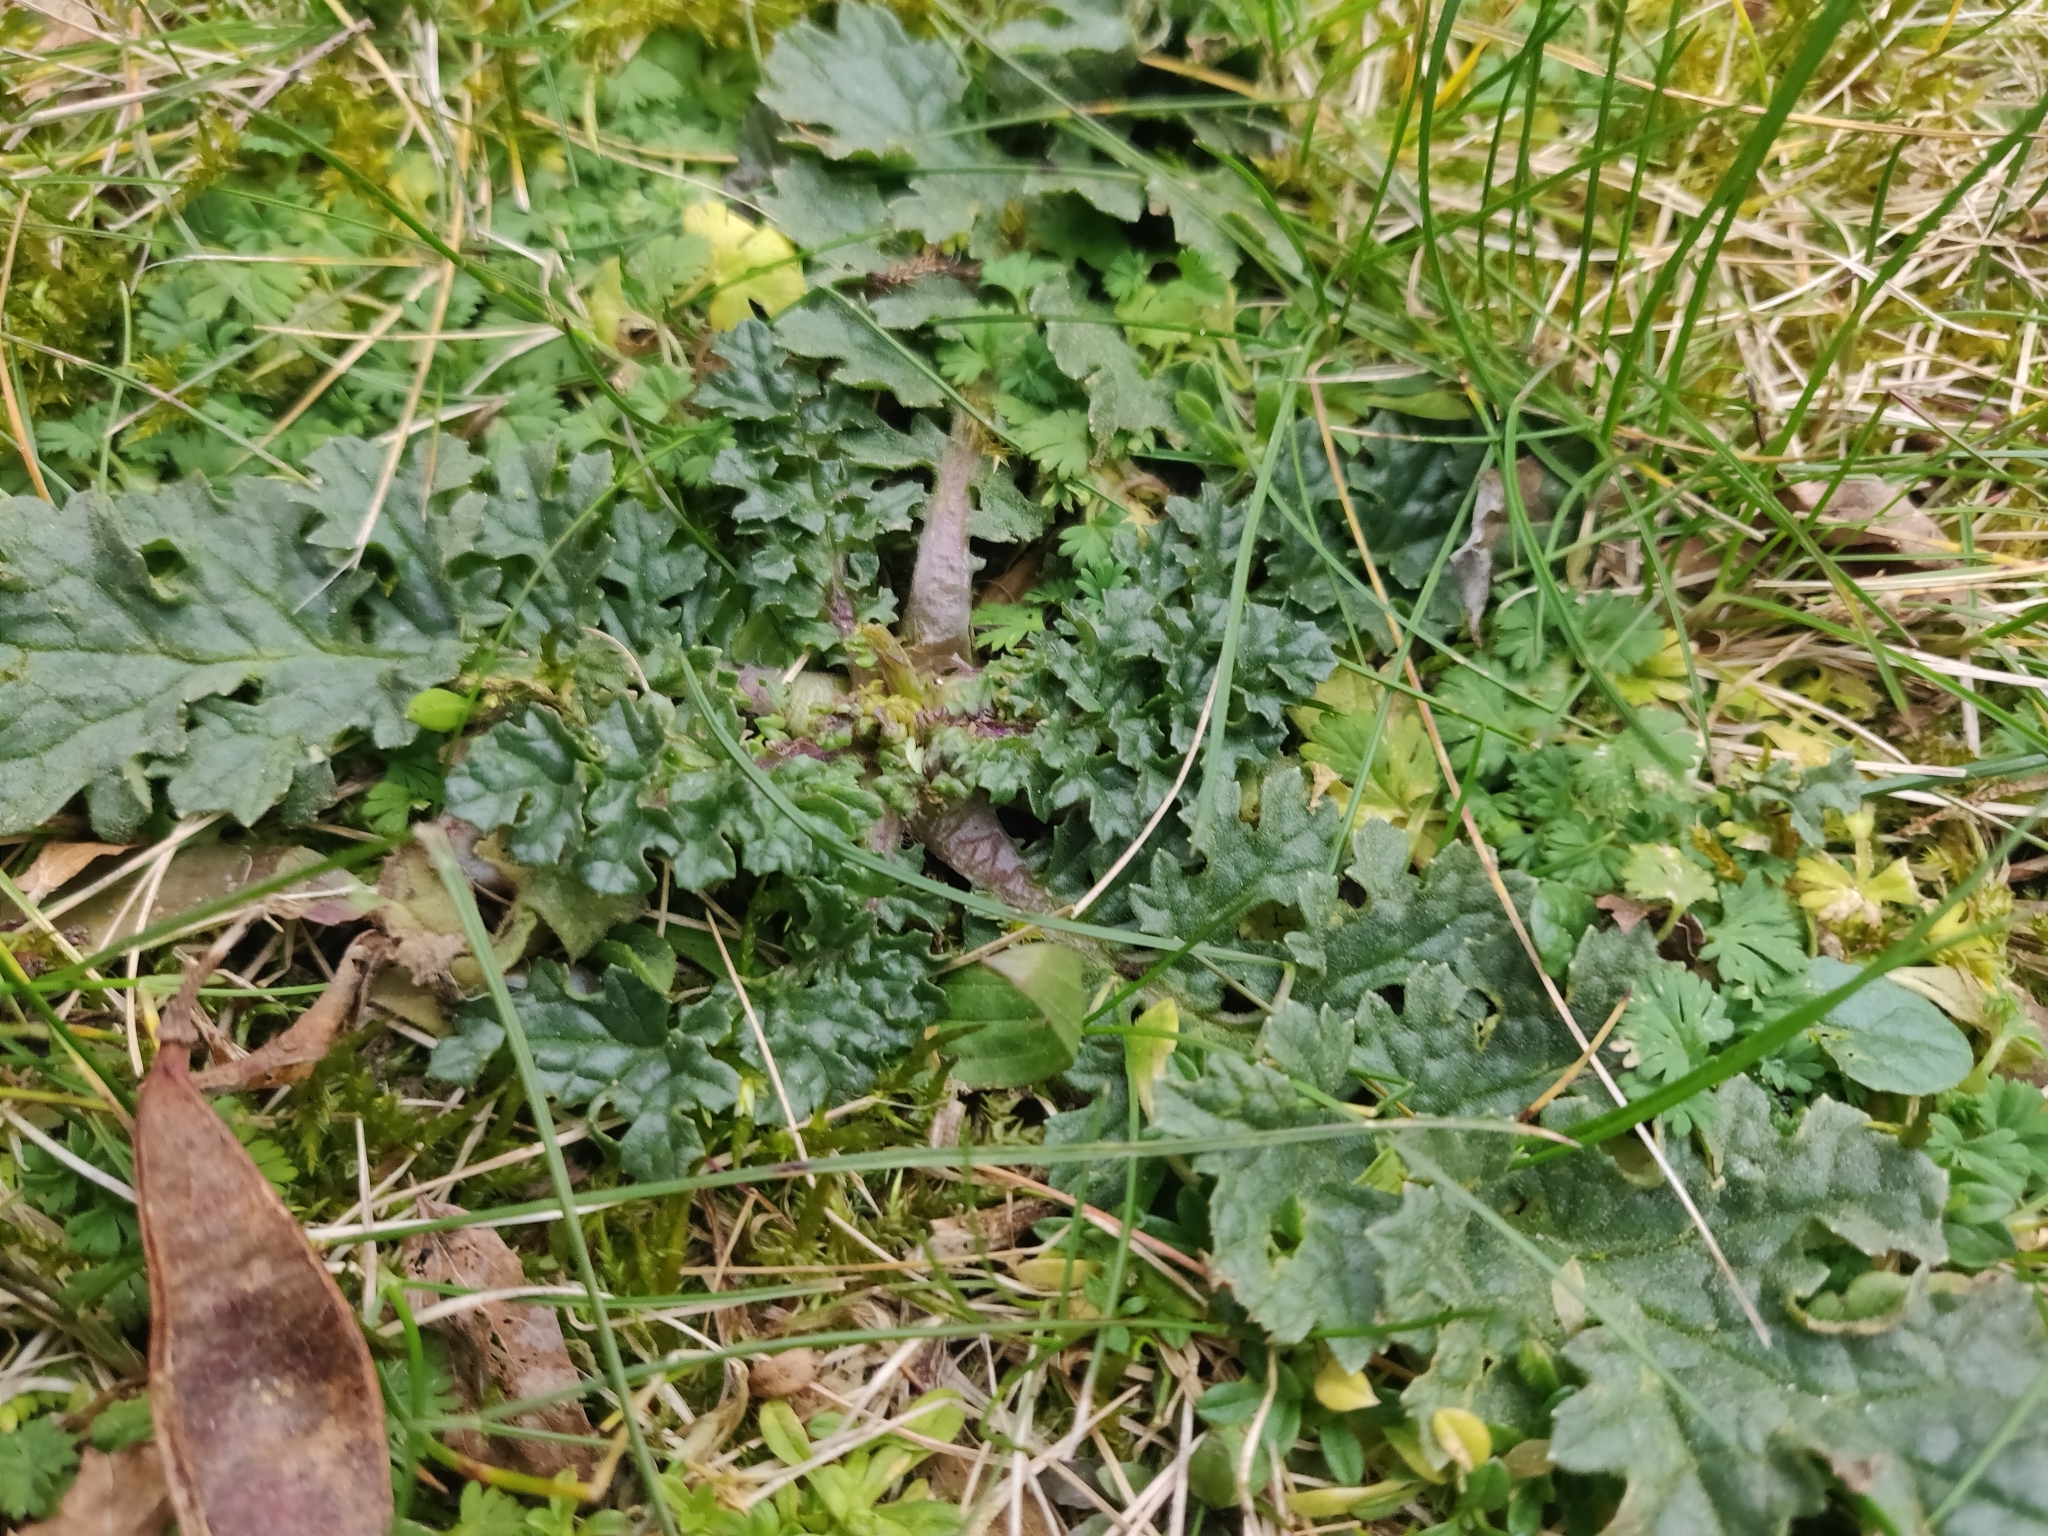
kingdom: Plantae
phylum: Tracheophyta
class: Magnoliopsida
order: Asterales
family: Asteraceae
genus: Jacobaea
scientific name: Jacobaea vulgaris
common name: Stinking willie
